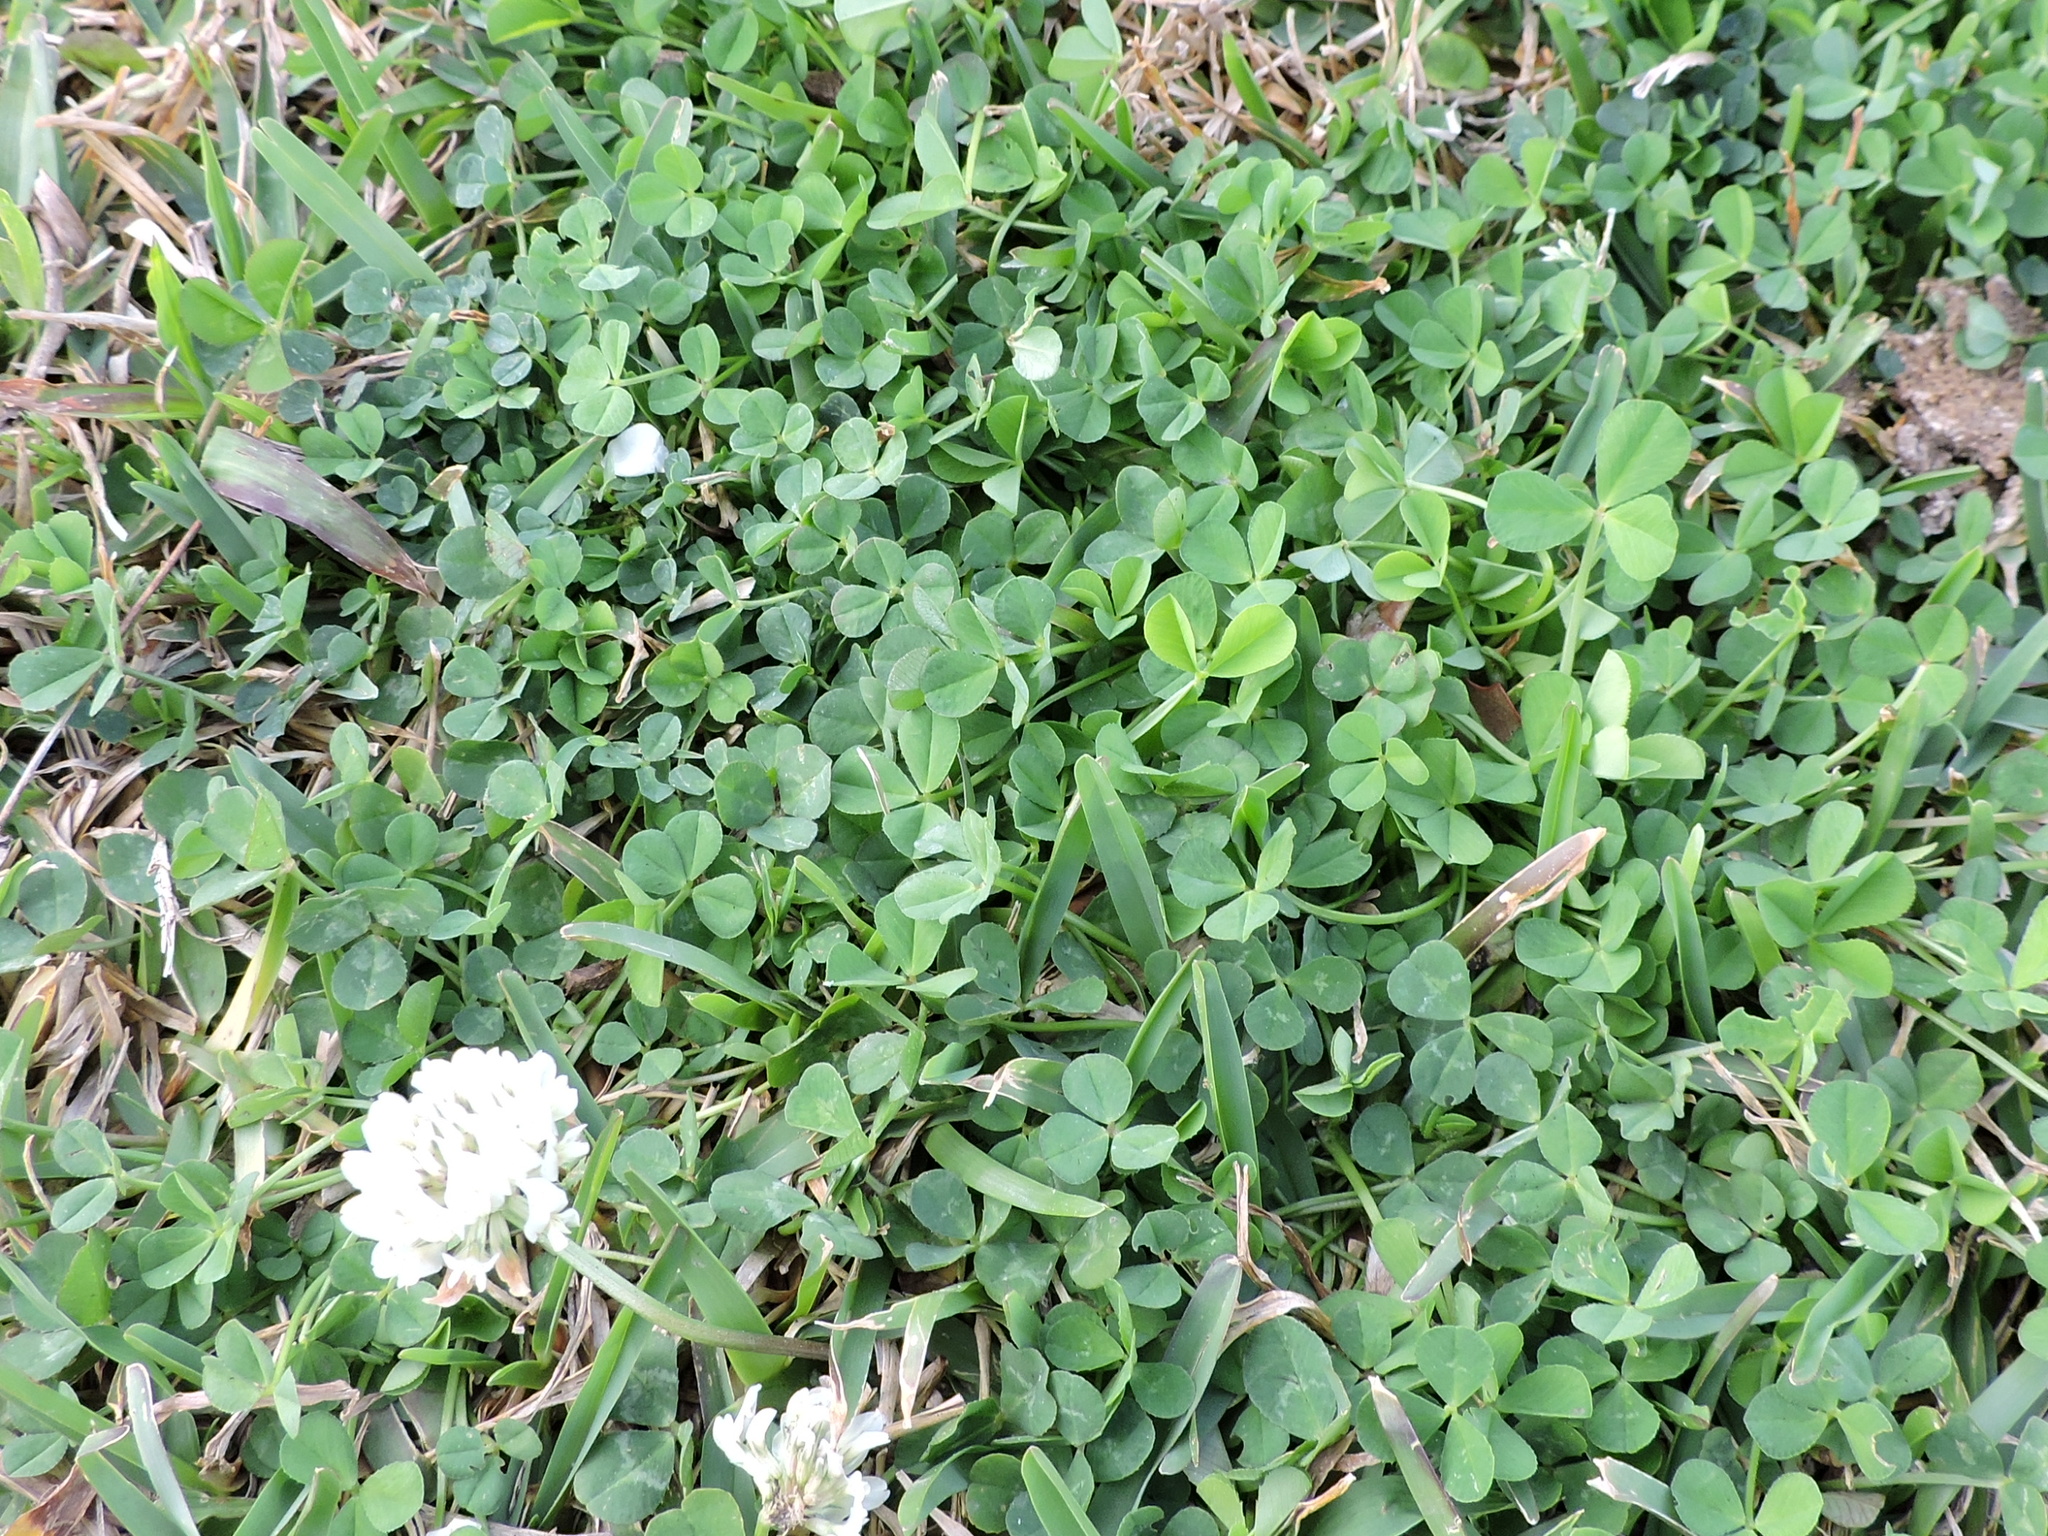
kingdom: Plantae
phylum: Tracheophyta
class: Magnoliopsida
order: Fabales
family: Fabaceae
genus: Trifolium
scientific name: Trifolium repens
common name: White clover
